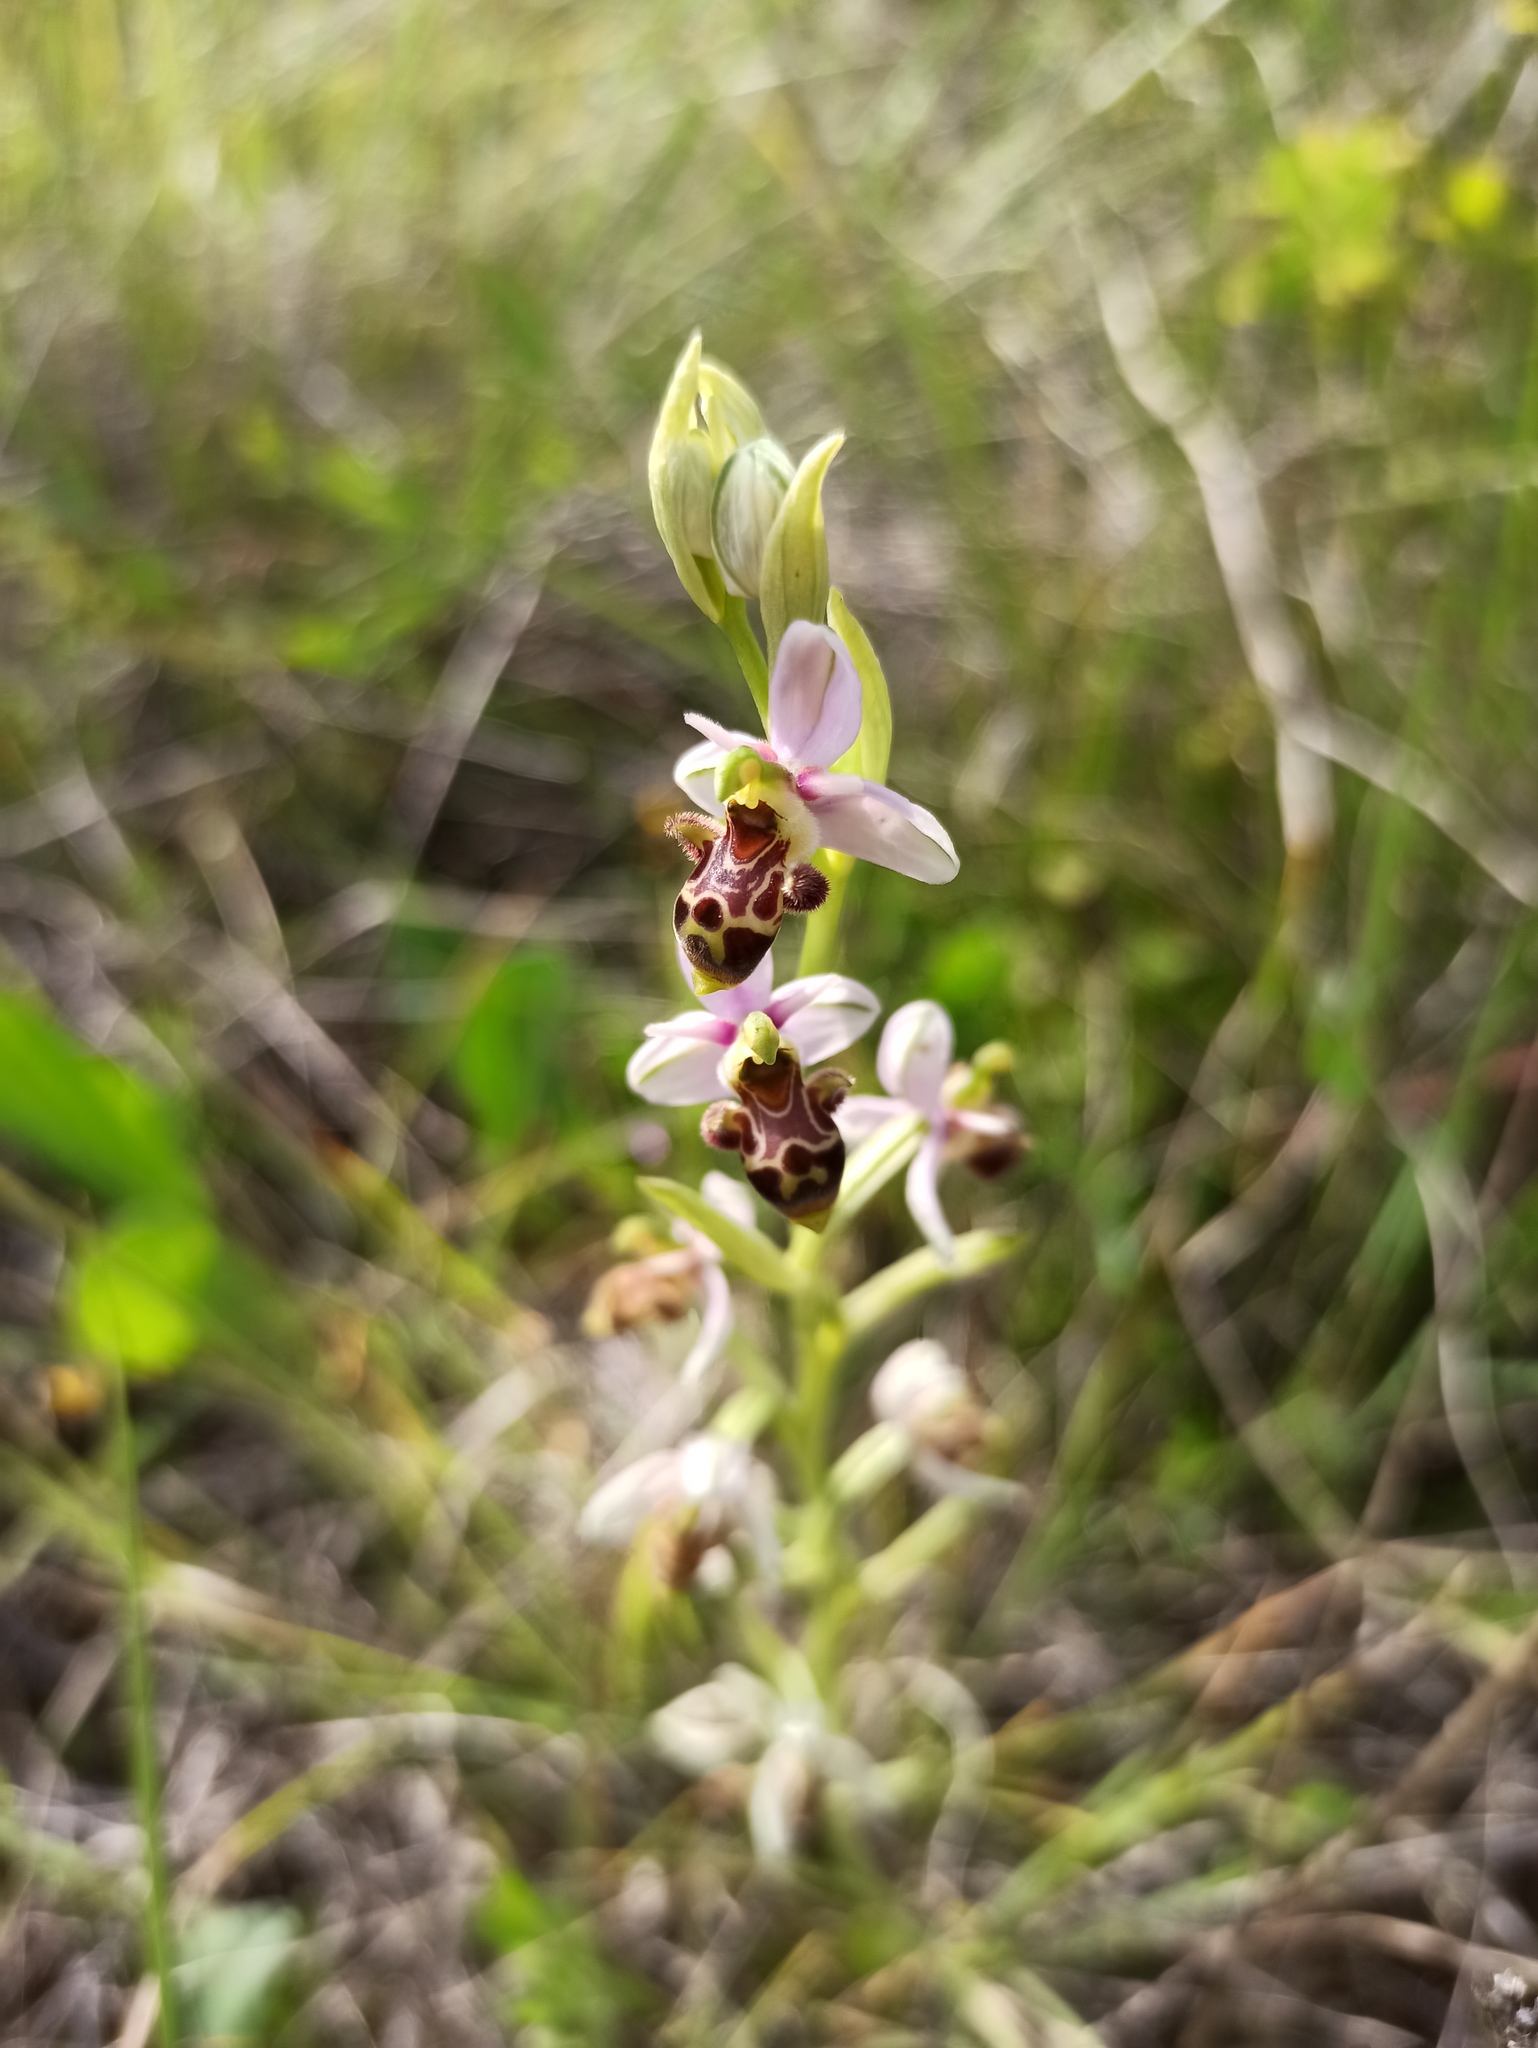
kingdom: Plantae
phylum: Tracheophyta
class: Liliopsida
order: Asparagales
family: Orchidaceae
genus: Ophrys
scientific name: Ophrys scolopax
